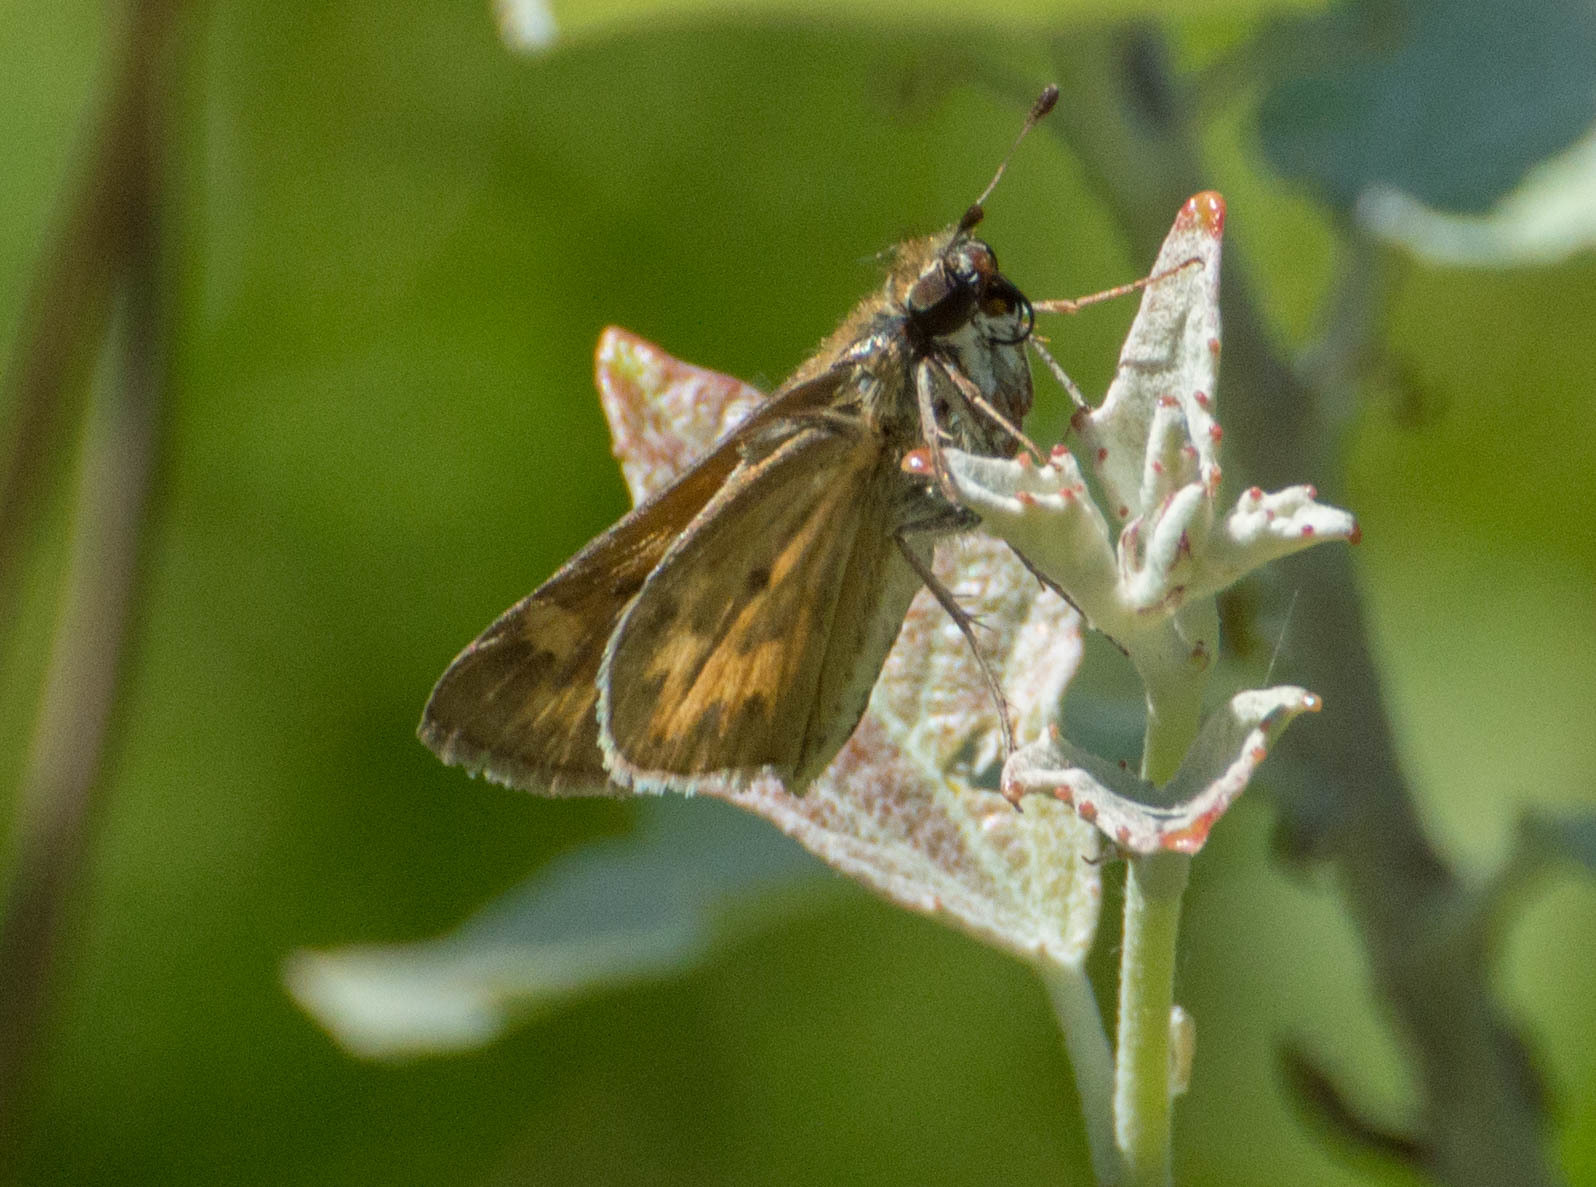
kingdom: Animalia
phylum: Arthropoda
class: Insecta
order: Lepidoptera
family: Hesperiidae
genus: Hylephila
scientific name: Hylephila phyleus
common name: Fiery skipper
